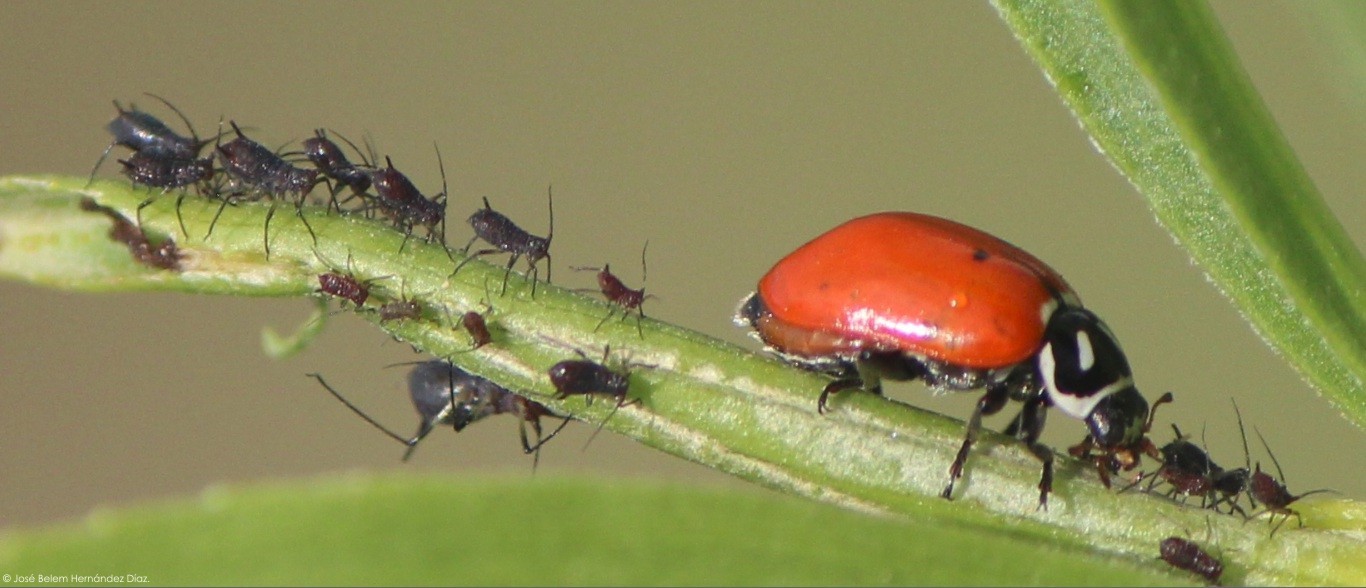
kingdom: Animalia
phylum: Arthropoda
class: Insecta
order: Coleoptera
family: Coccinellidae
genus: Hippodamia
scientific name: Hippodamia convergens
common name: Convergent lady beetle
